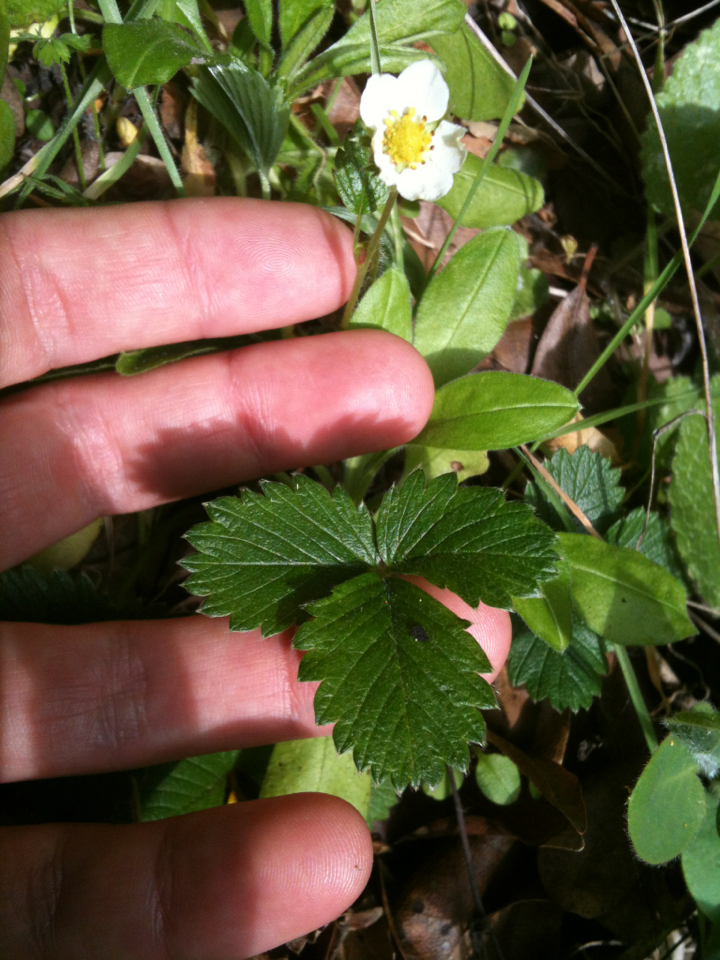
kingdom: Plantae
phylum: Tracheophyta
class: Magnoliopsida
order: Rosales
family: Rosaceae
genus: Fragaria
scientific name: Fragaria vesca
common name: Wild strawberry
